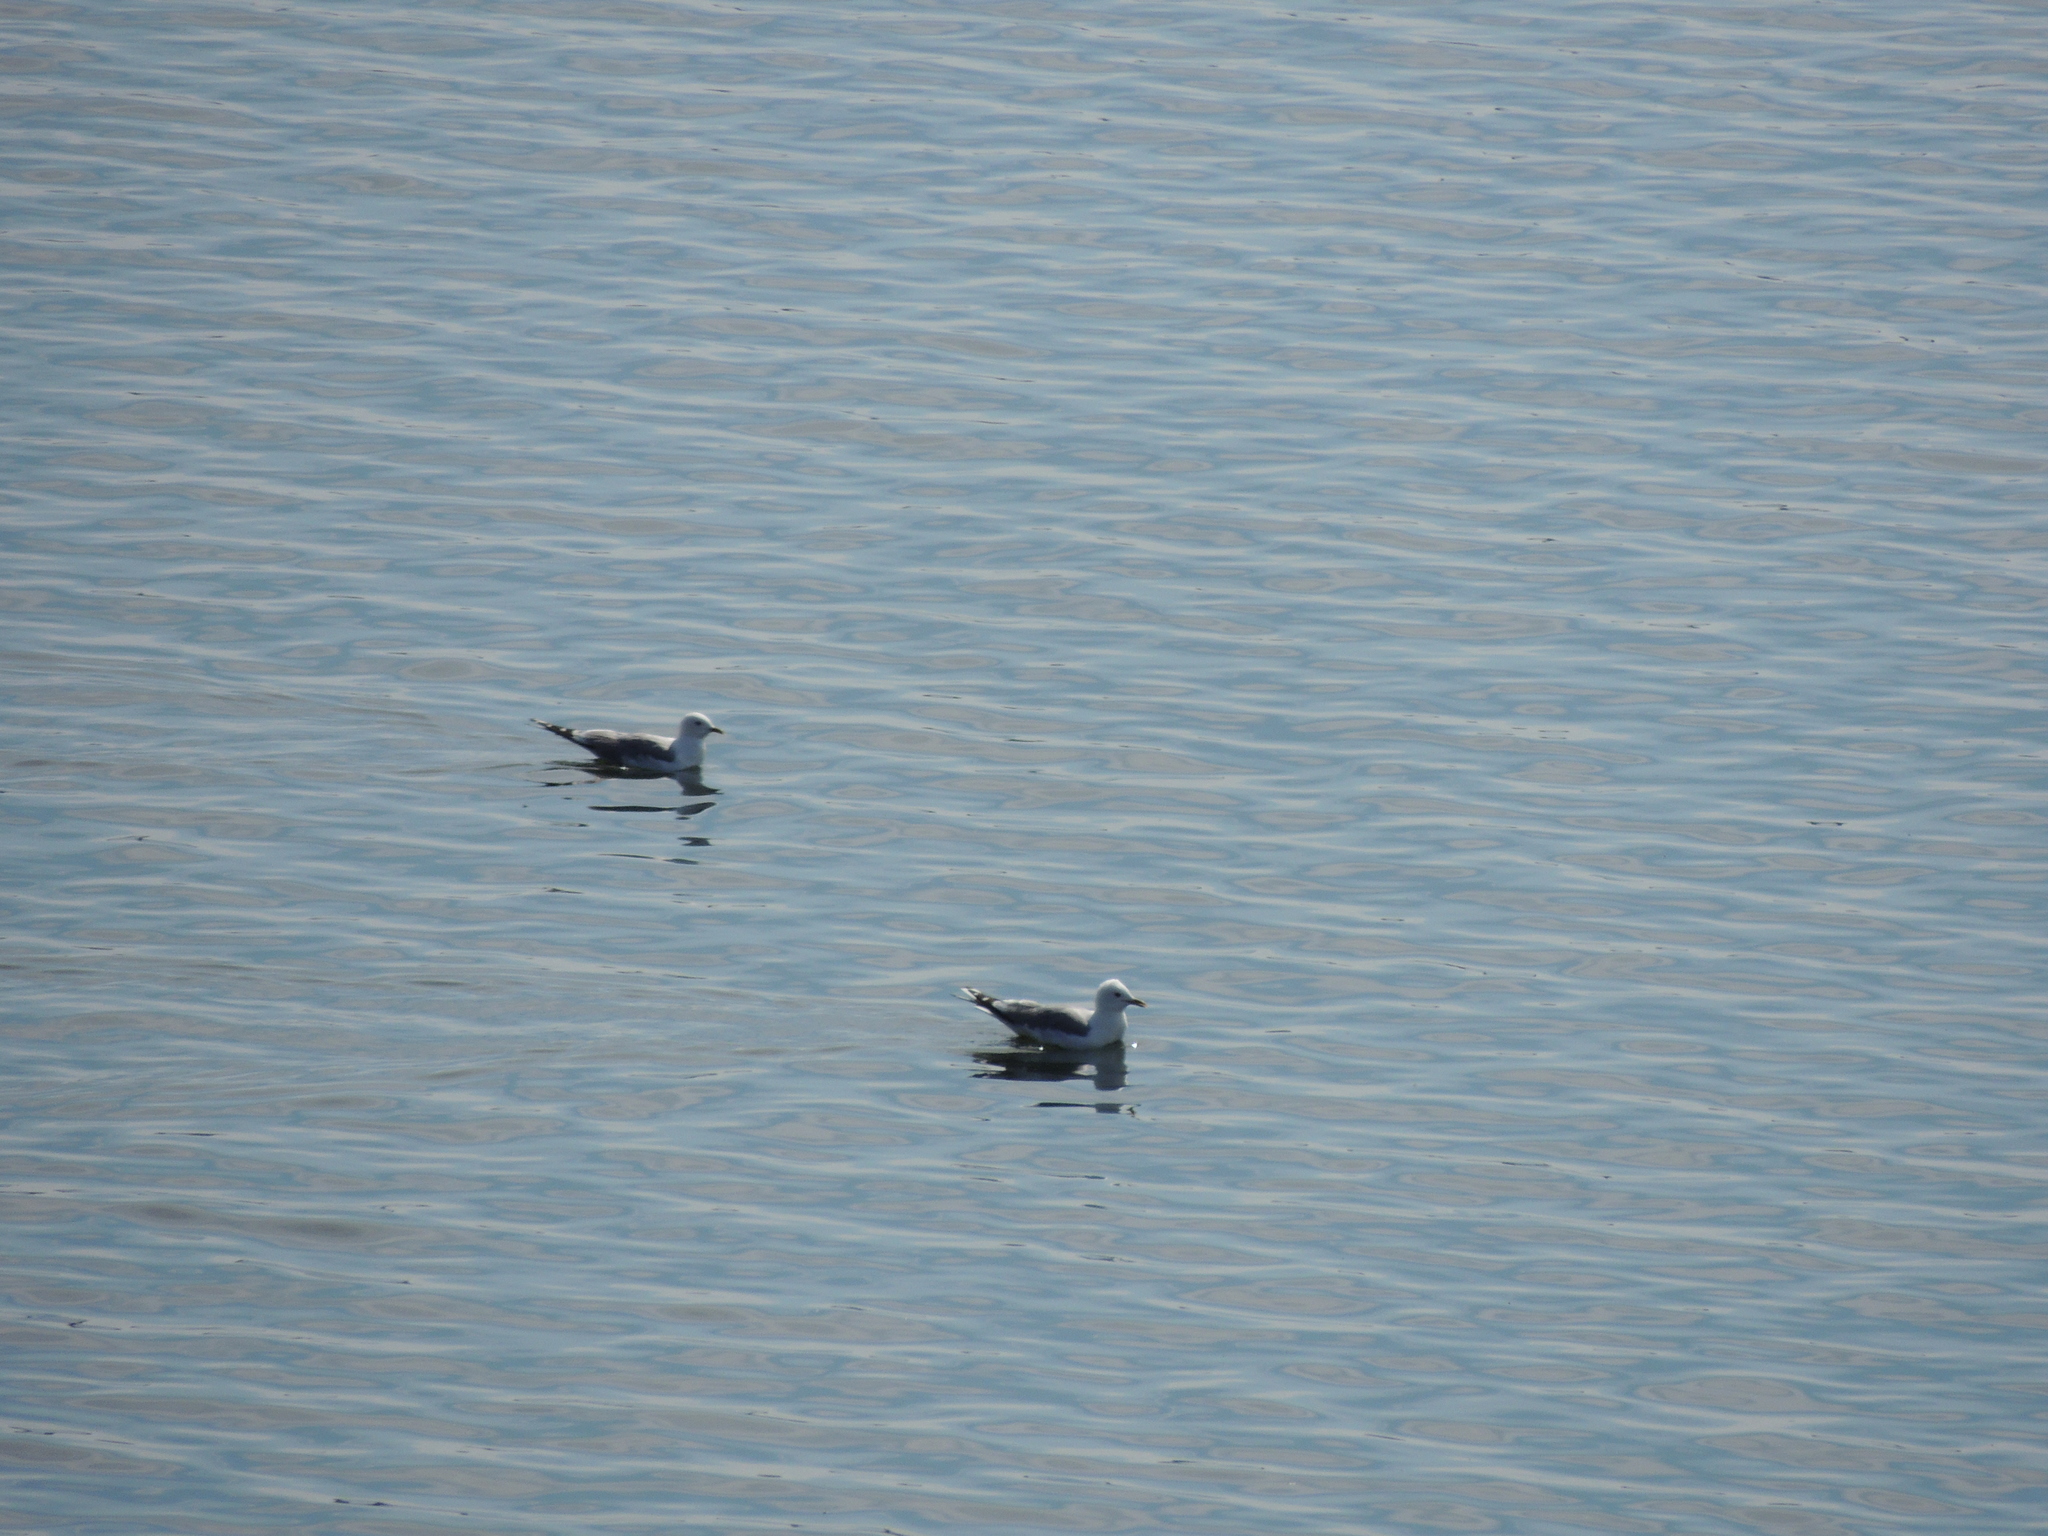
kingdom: Animalia
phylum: Chordata
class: Aves
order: Charadriiformes
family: Laridae
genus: Larus
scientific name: Larus canus
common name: Mew gull
